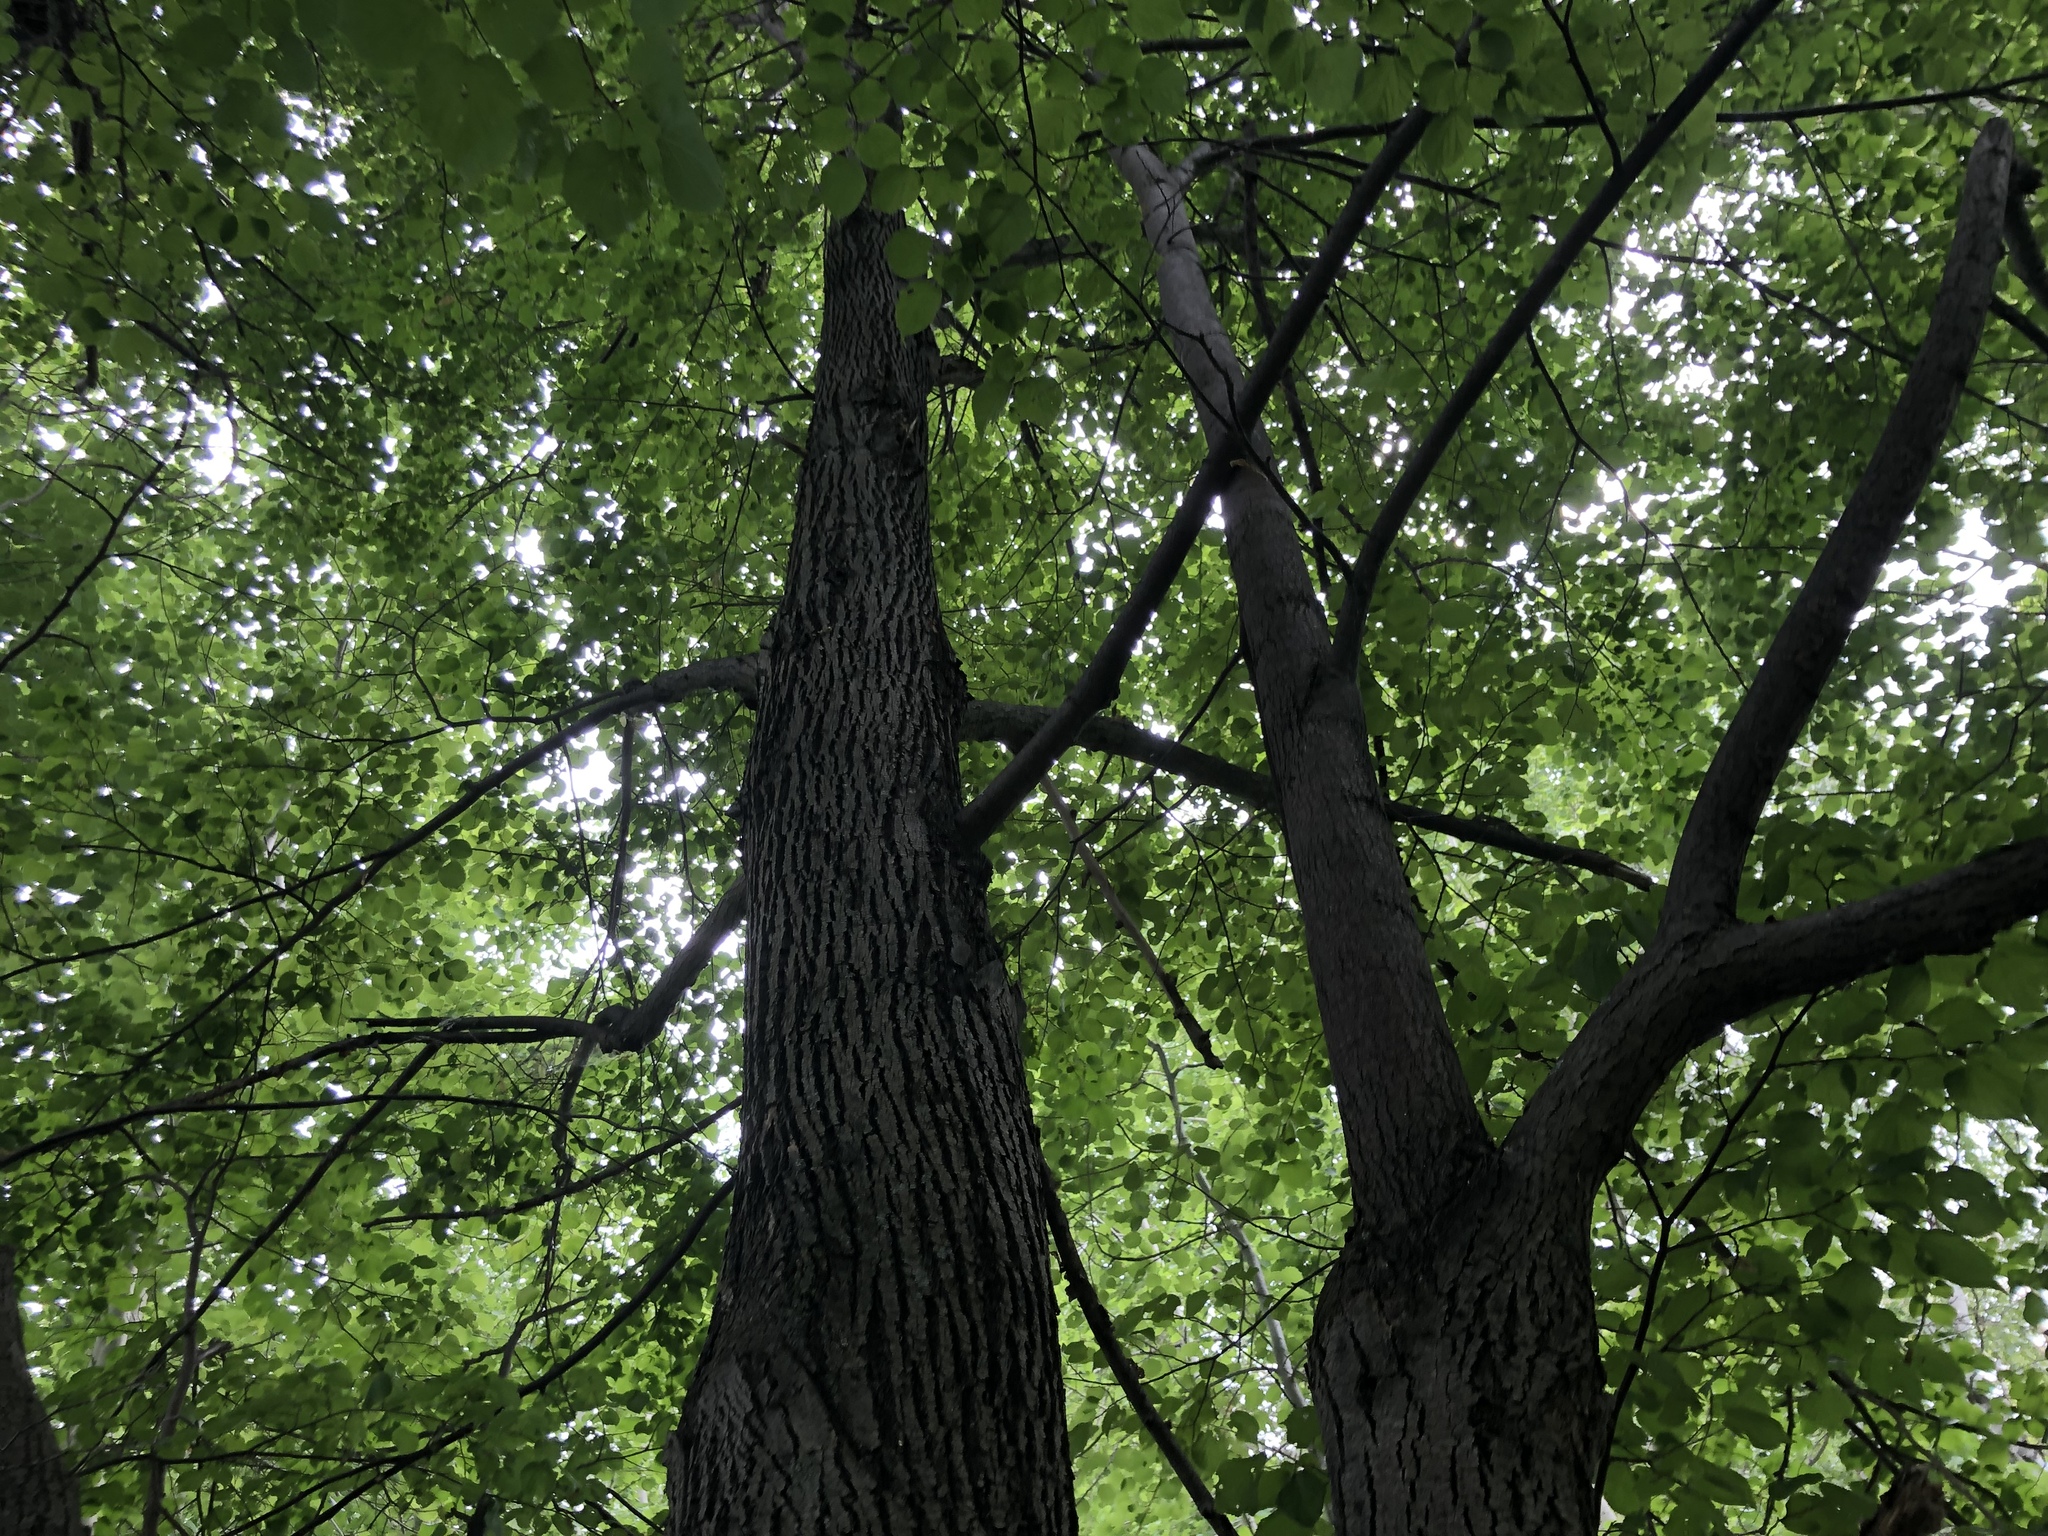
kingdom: Plantae
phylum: Tracheophyta
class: Magnoliopsida
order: Malvales
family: Malvaceae
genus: Tilia
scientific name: Tilia cordata
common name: Small-leaved lime
